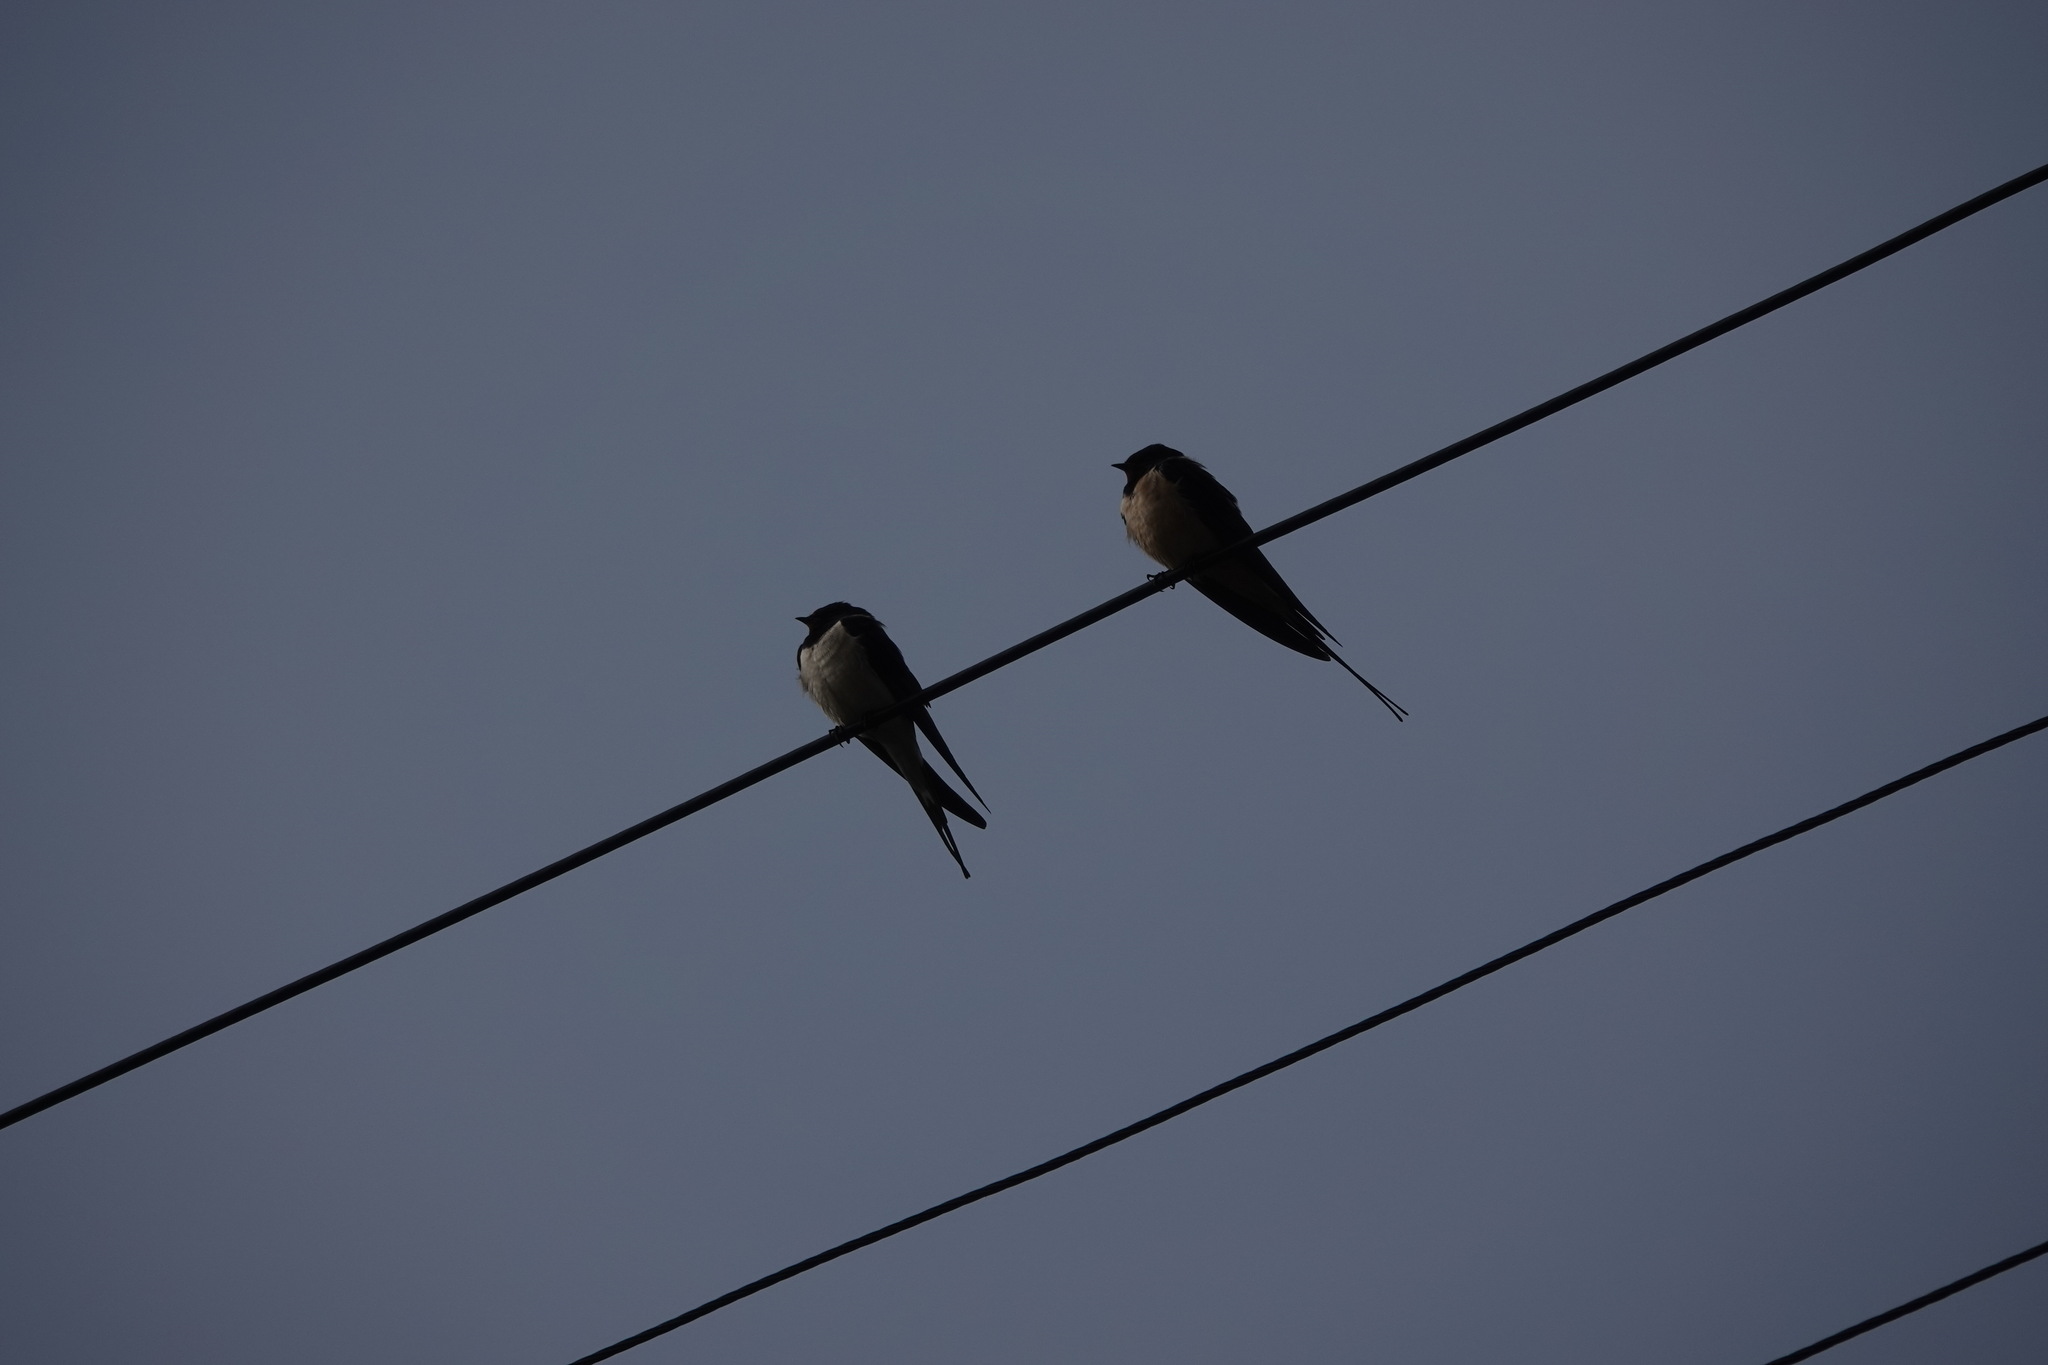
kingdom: Animalia
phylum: Chordata
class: Aves
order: Passeriformes
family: Hirundinidae
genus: Hirundo
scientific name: Hirundo rustica
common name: Barn swallow
